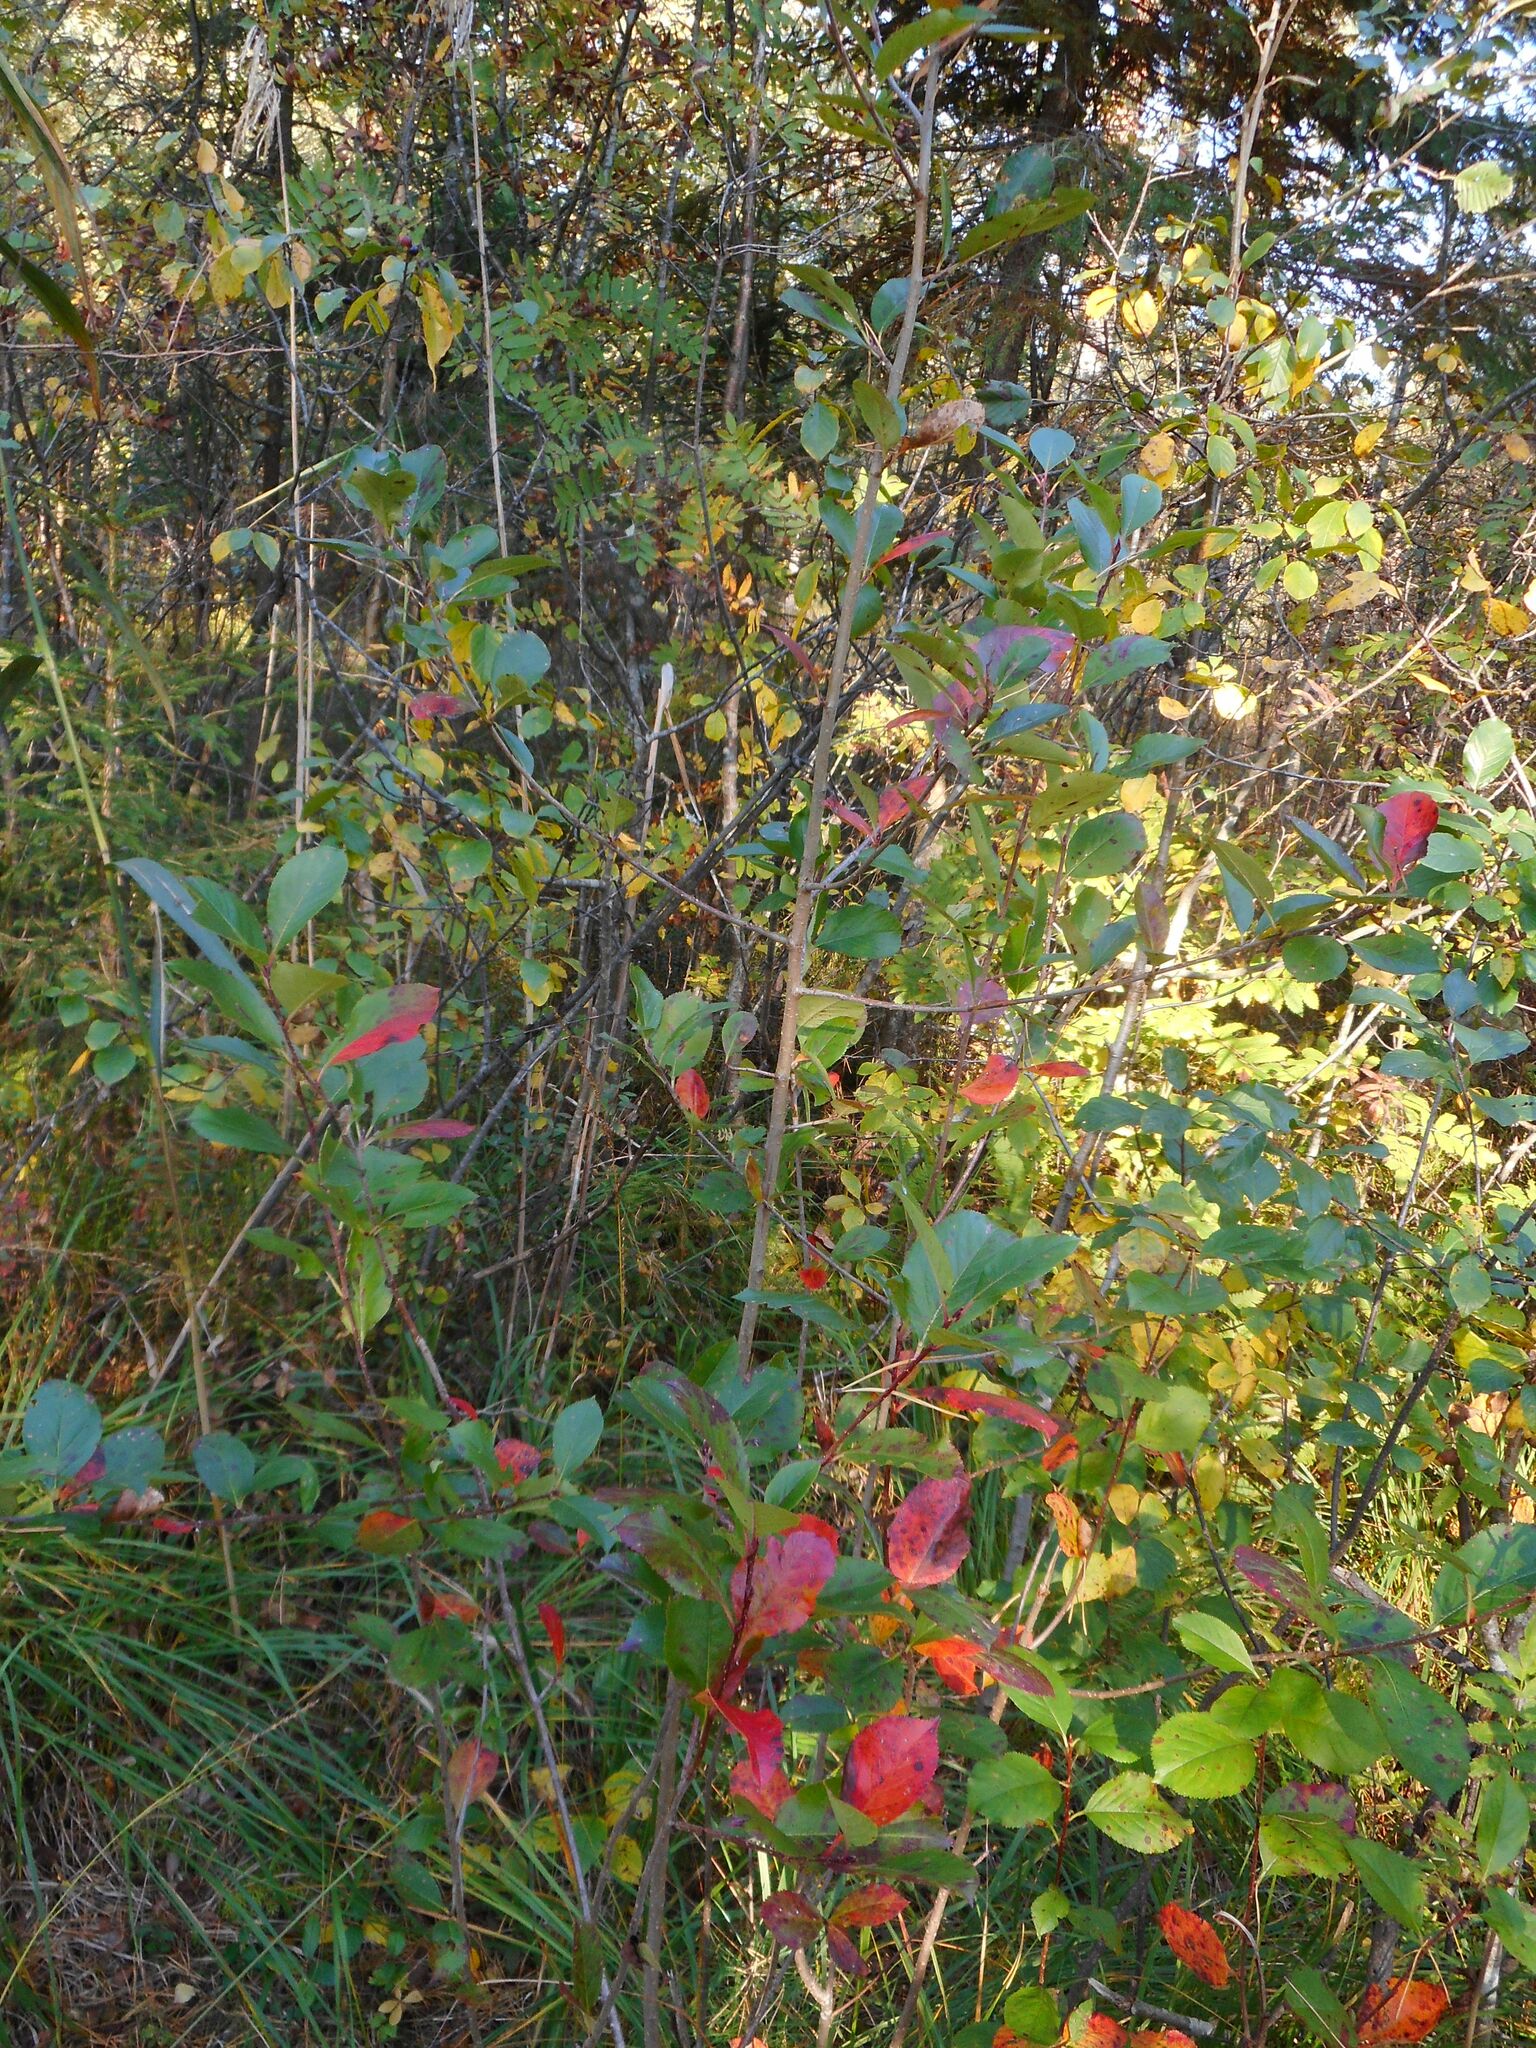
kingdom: Plantae
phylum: Tracheophyta
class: Magnoliopsida
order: Rosales
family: Rosaceae
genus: Sorbaronia
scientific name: Sorbaronia arsenii
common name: Arsène's mountain-ash
